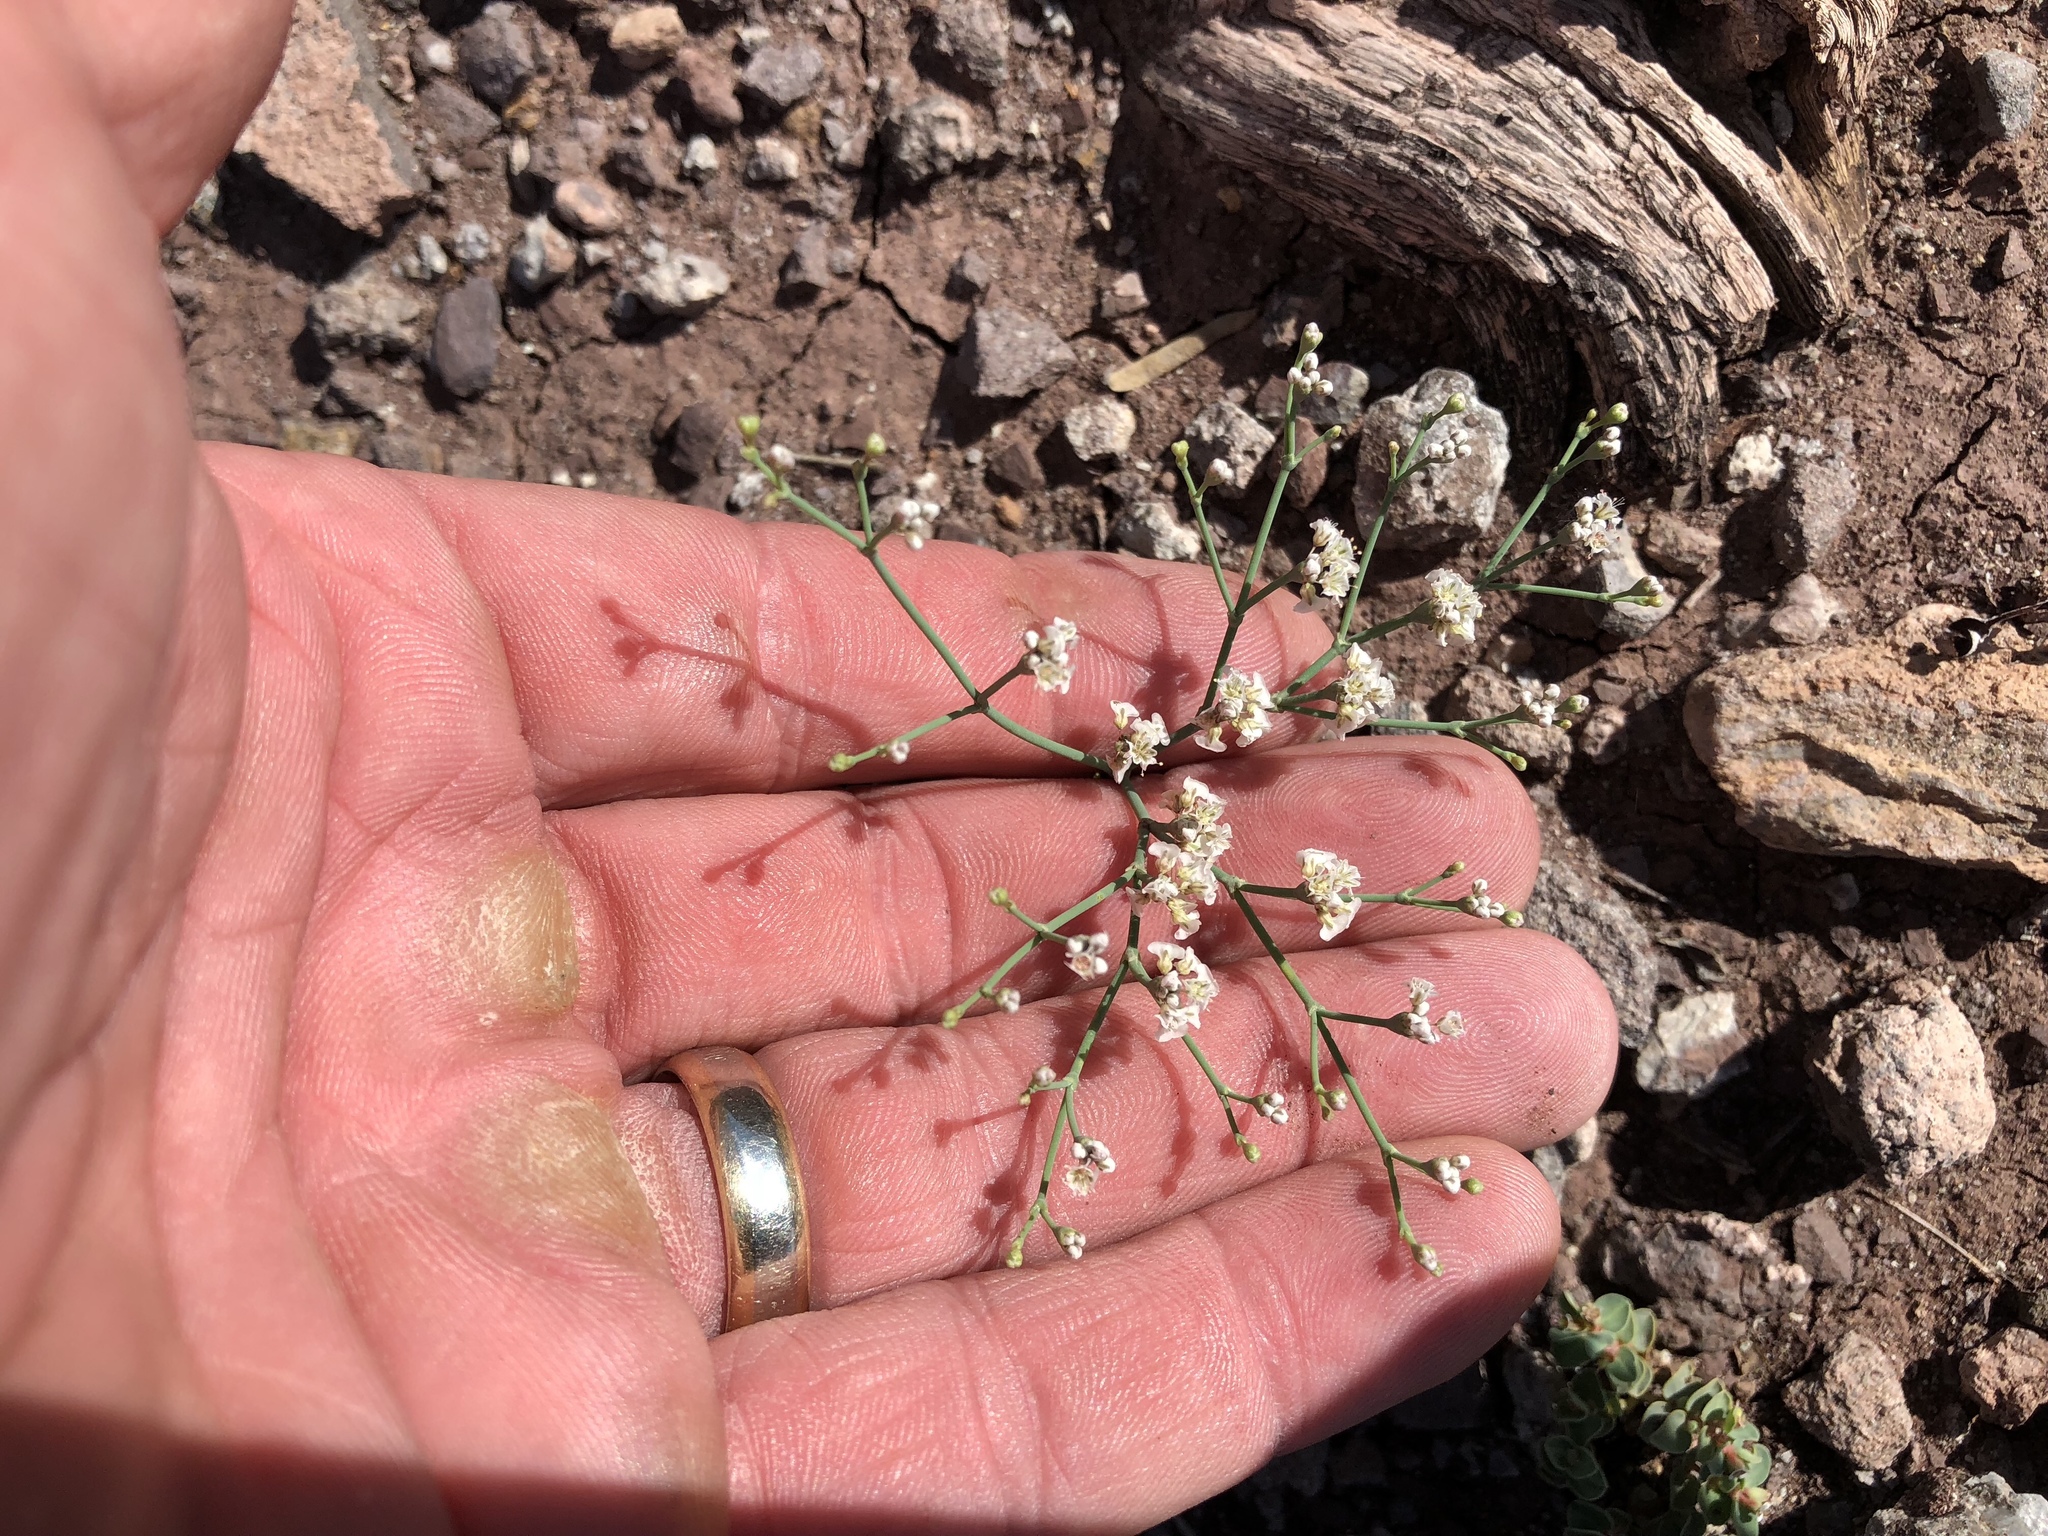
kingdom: Plantae
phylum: Tracheophyta
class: Magnoliopsida
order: Caryophyllales
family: Polygonaceae
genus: Eriogonum
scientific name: Eriogonum rotundifolium
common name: Round-leaf wild buckwheat
